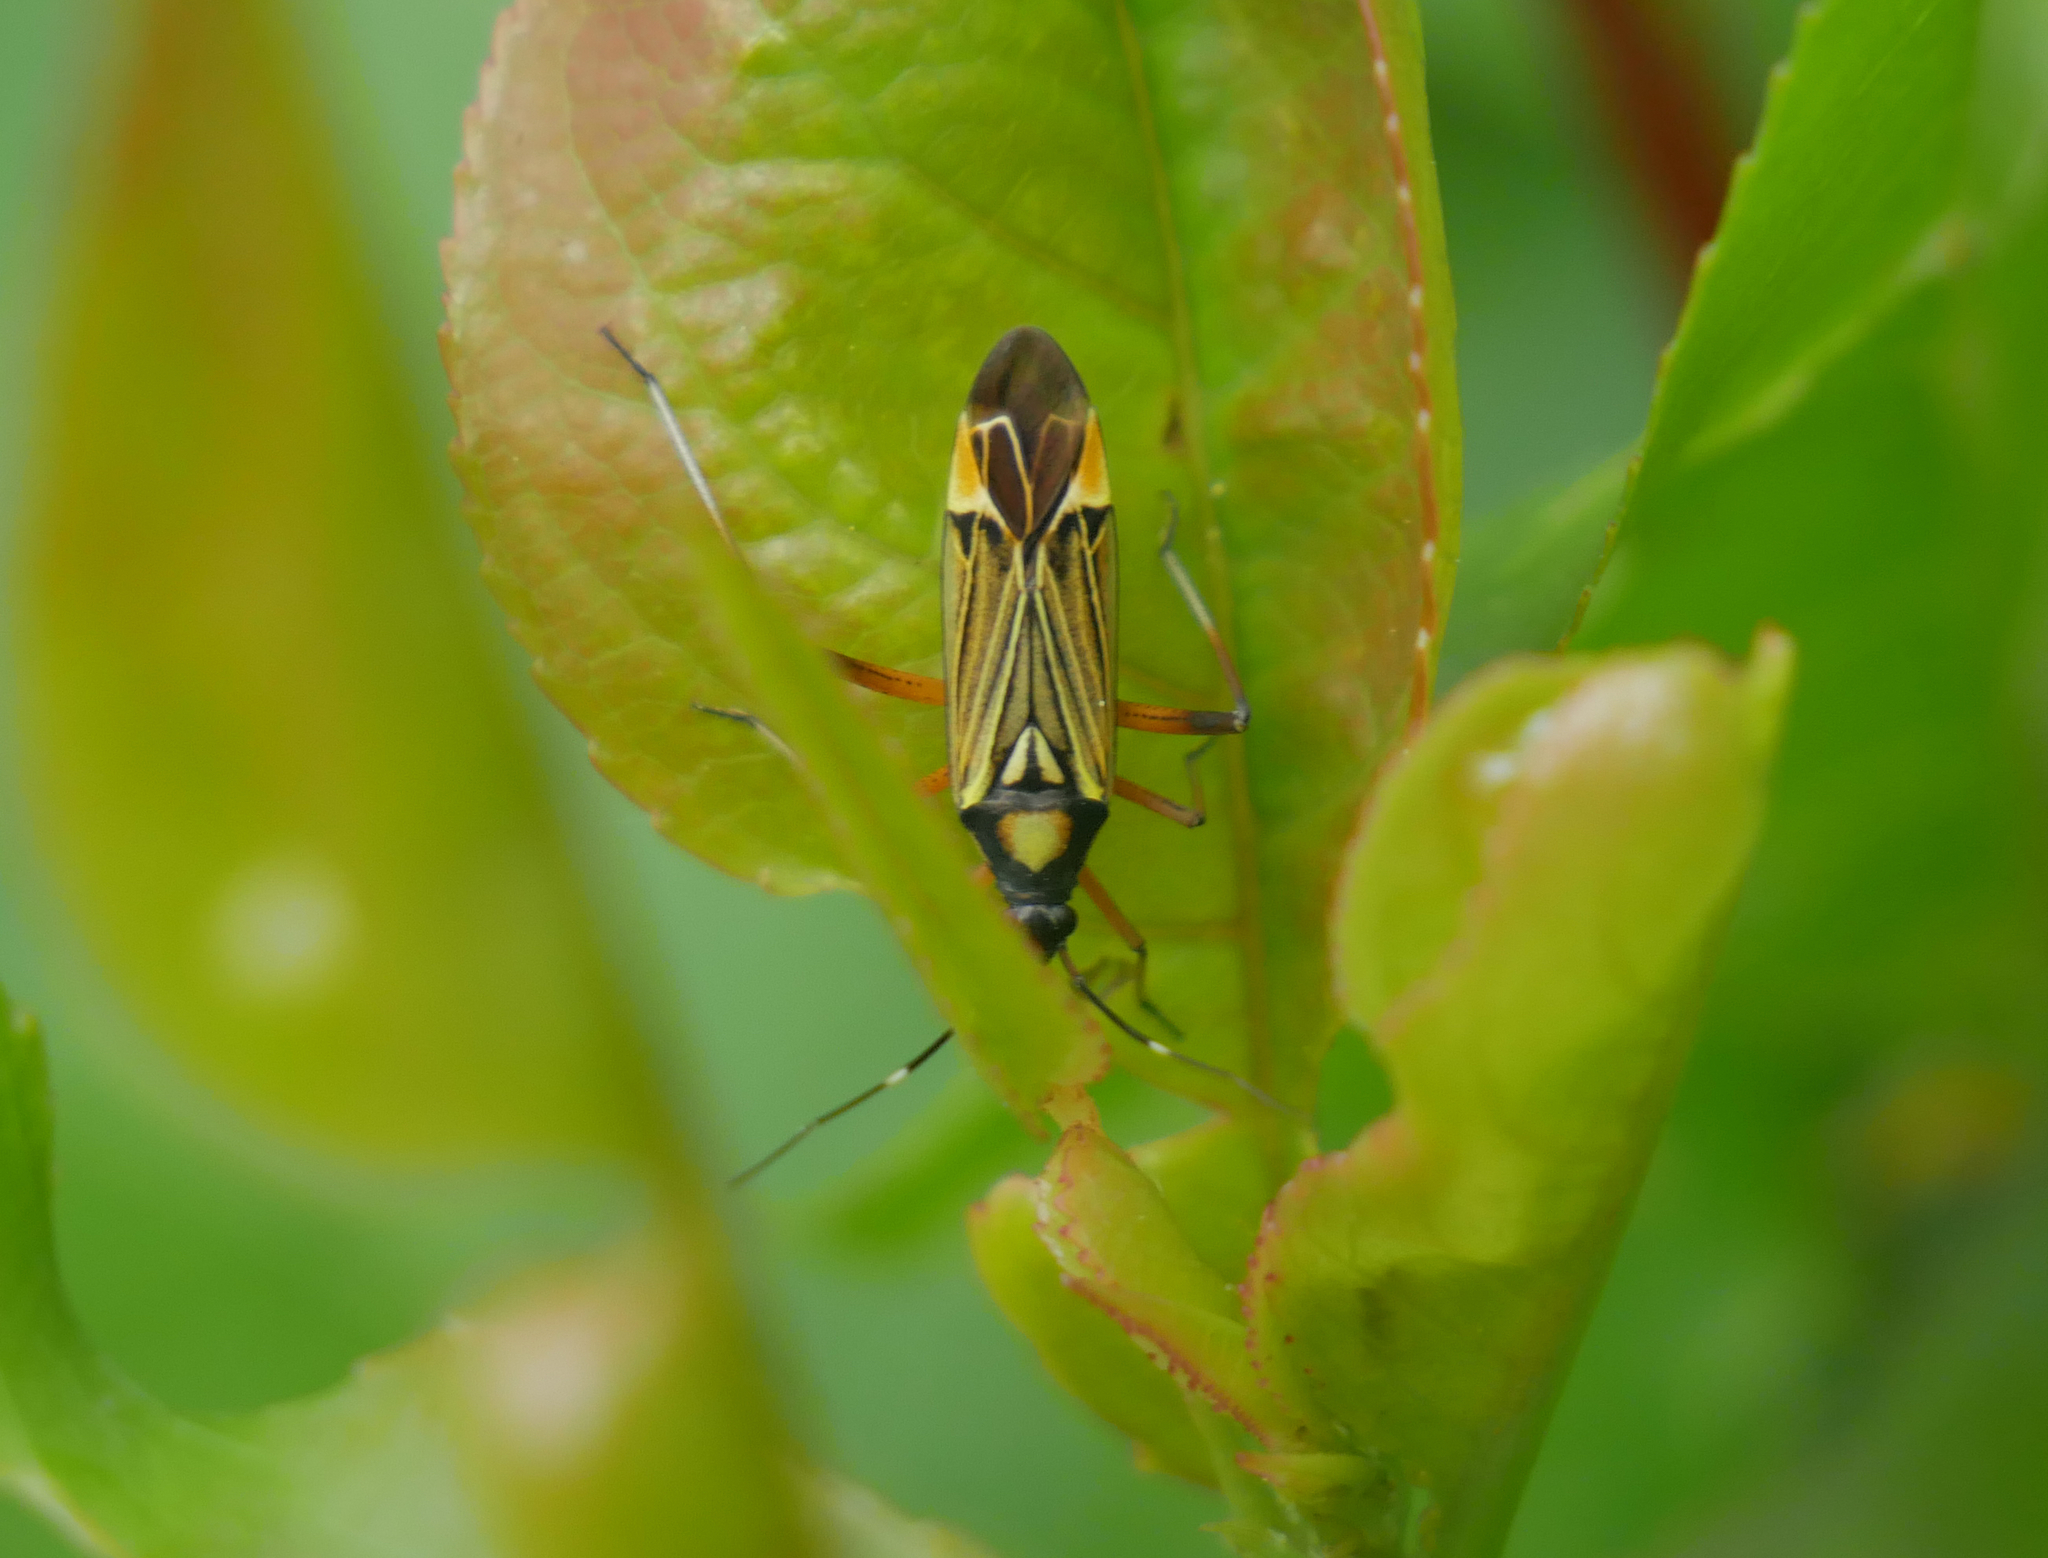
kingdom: Animalia
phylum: Arthropoda
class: Insecta
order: Hemiptera
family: Miridae
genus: Miris
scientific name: Miris striatus
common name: Fine streaked bugkin
